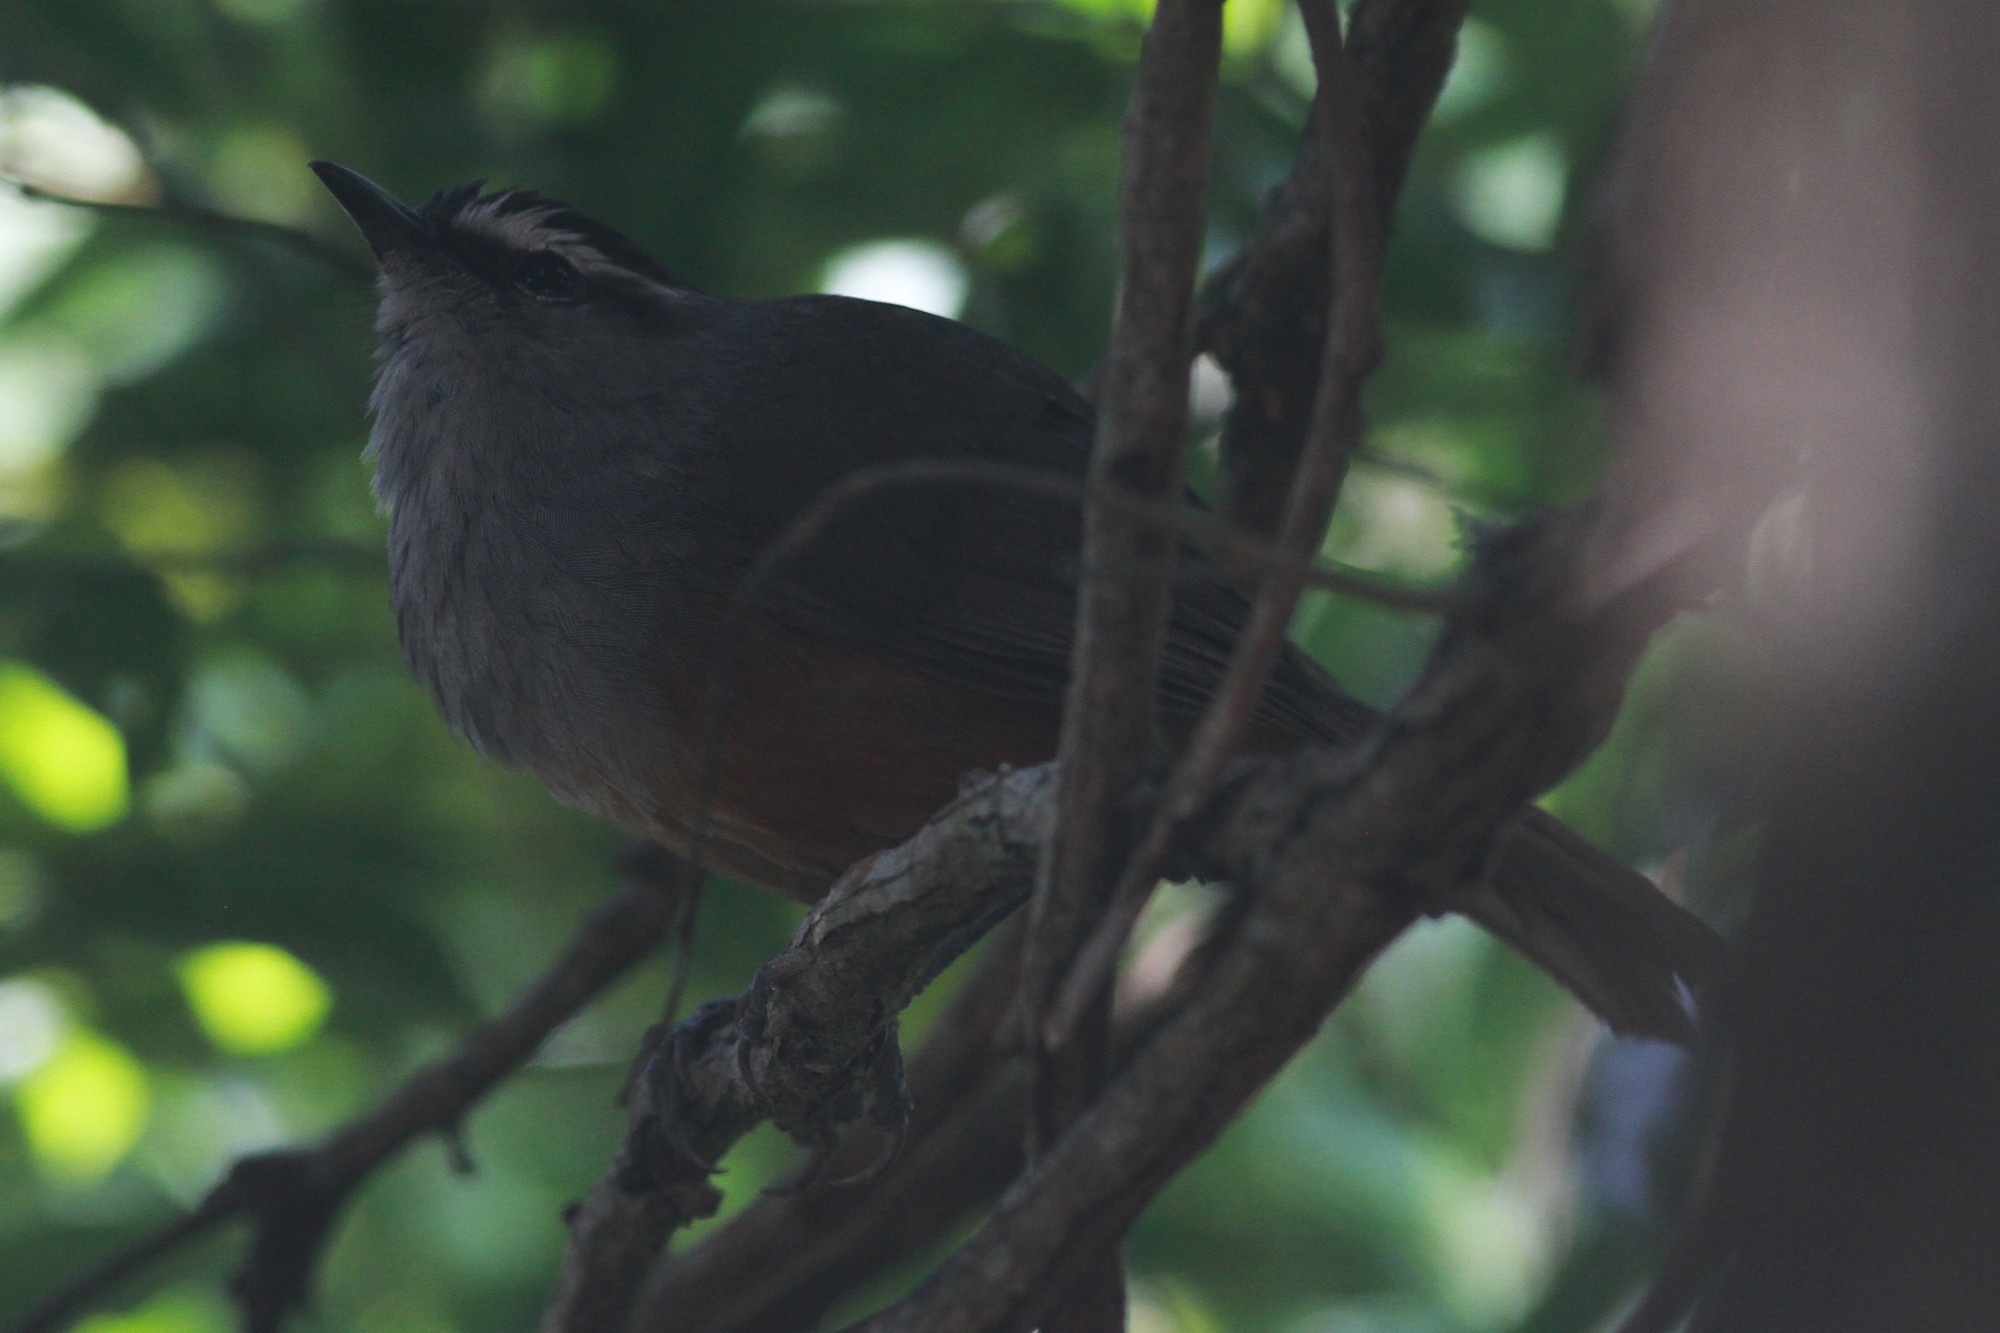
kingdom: Animalia
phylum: Chordata
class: Aves
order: Passeriformes
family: Leiothrichidae
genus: Trochalopteron
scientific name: Trochalopteron fairbanki
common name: Kerala laughingthrush
